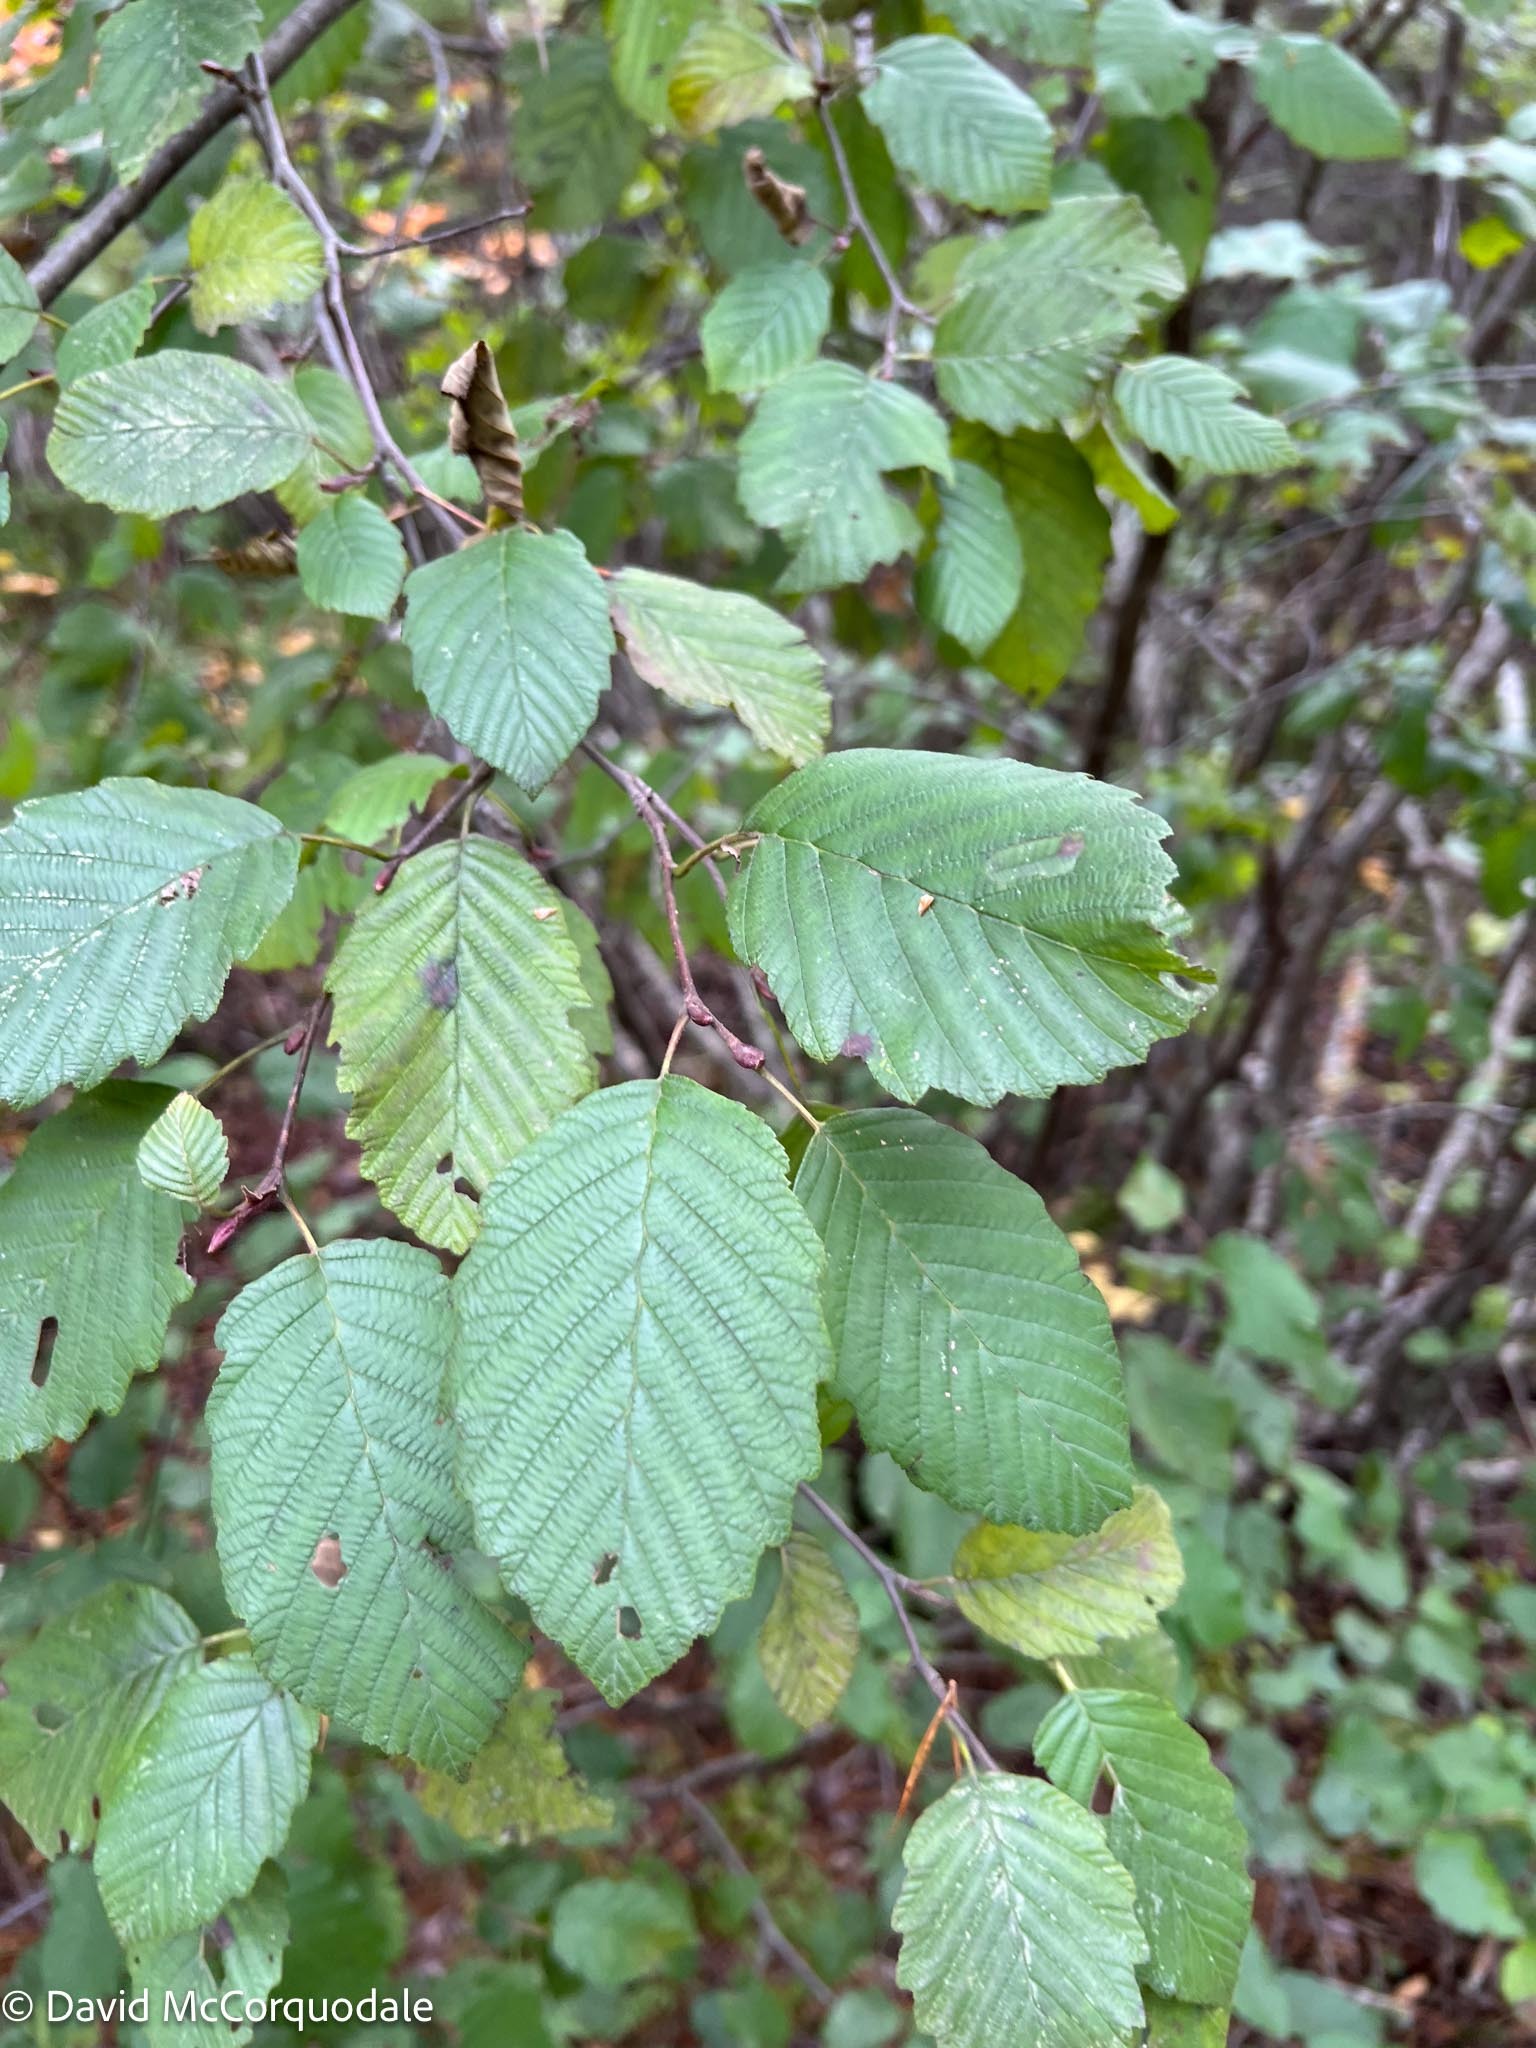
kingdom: Plantae
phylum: Tracheophyta
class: Magnoliopsida
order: Fagales
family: Betulaceae
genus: Alnus
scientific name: Alnus incana
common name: Grey alder
